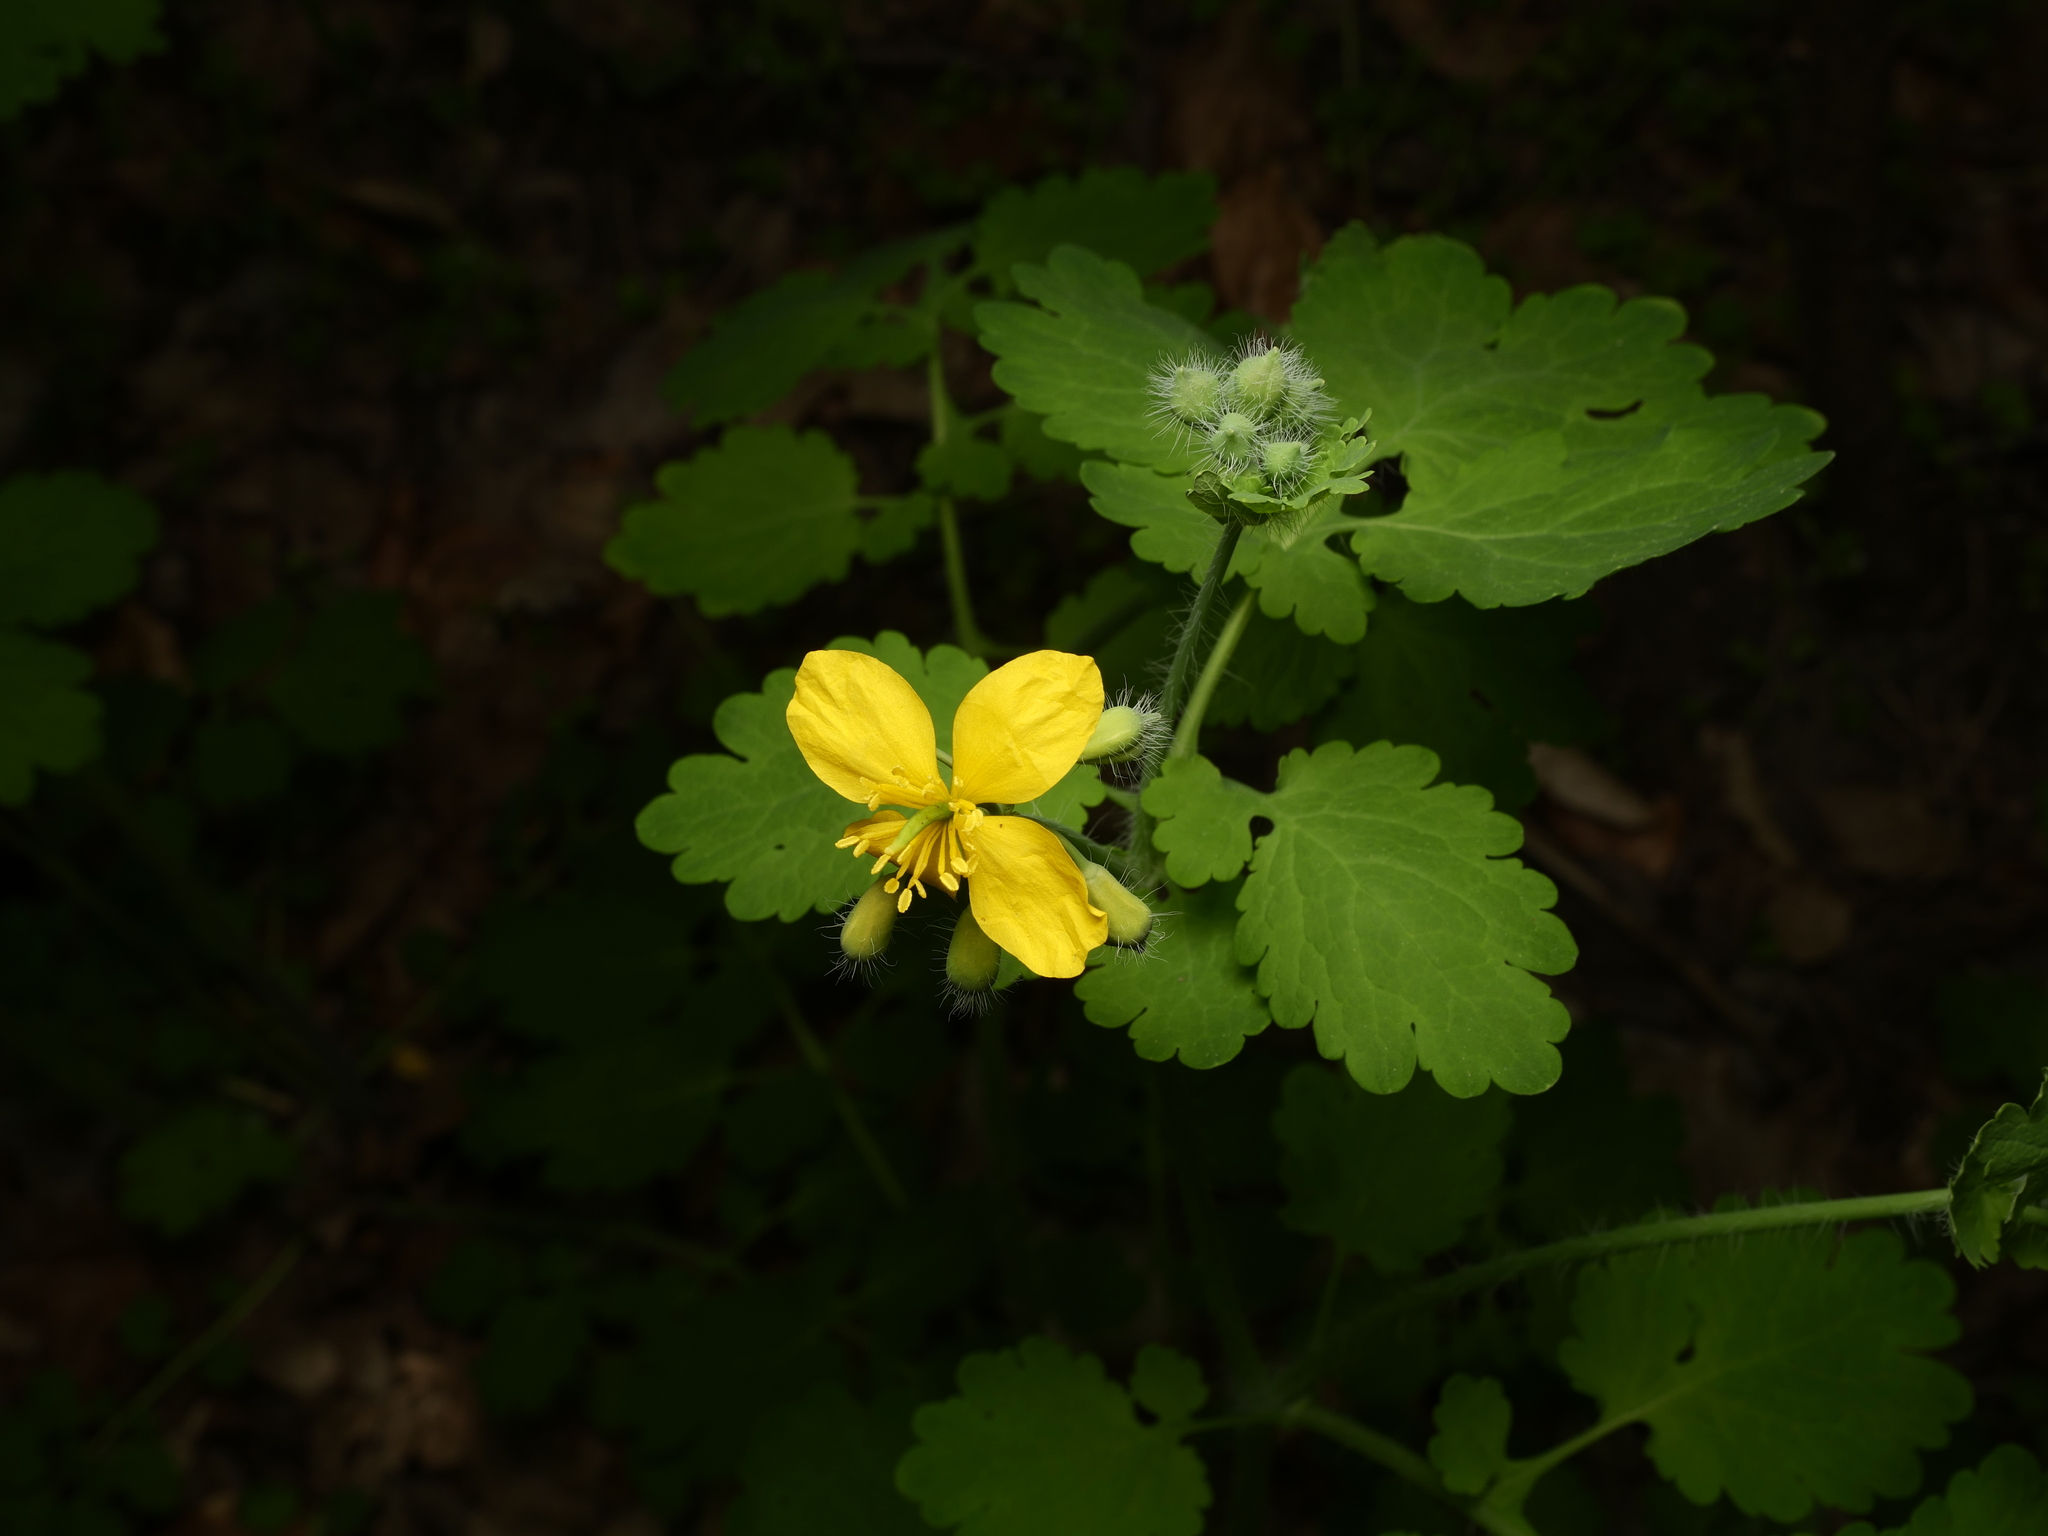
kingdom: Plantae
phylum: Tracheophyta
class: Magnoliopsida
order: Ranunculales
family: Papaveraceae
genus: Chelidonium
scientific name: Chelidonium majus
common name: Greater celandine
